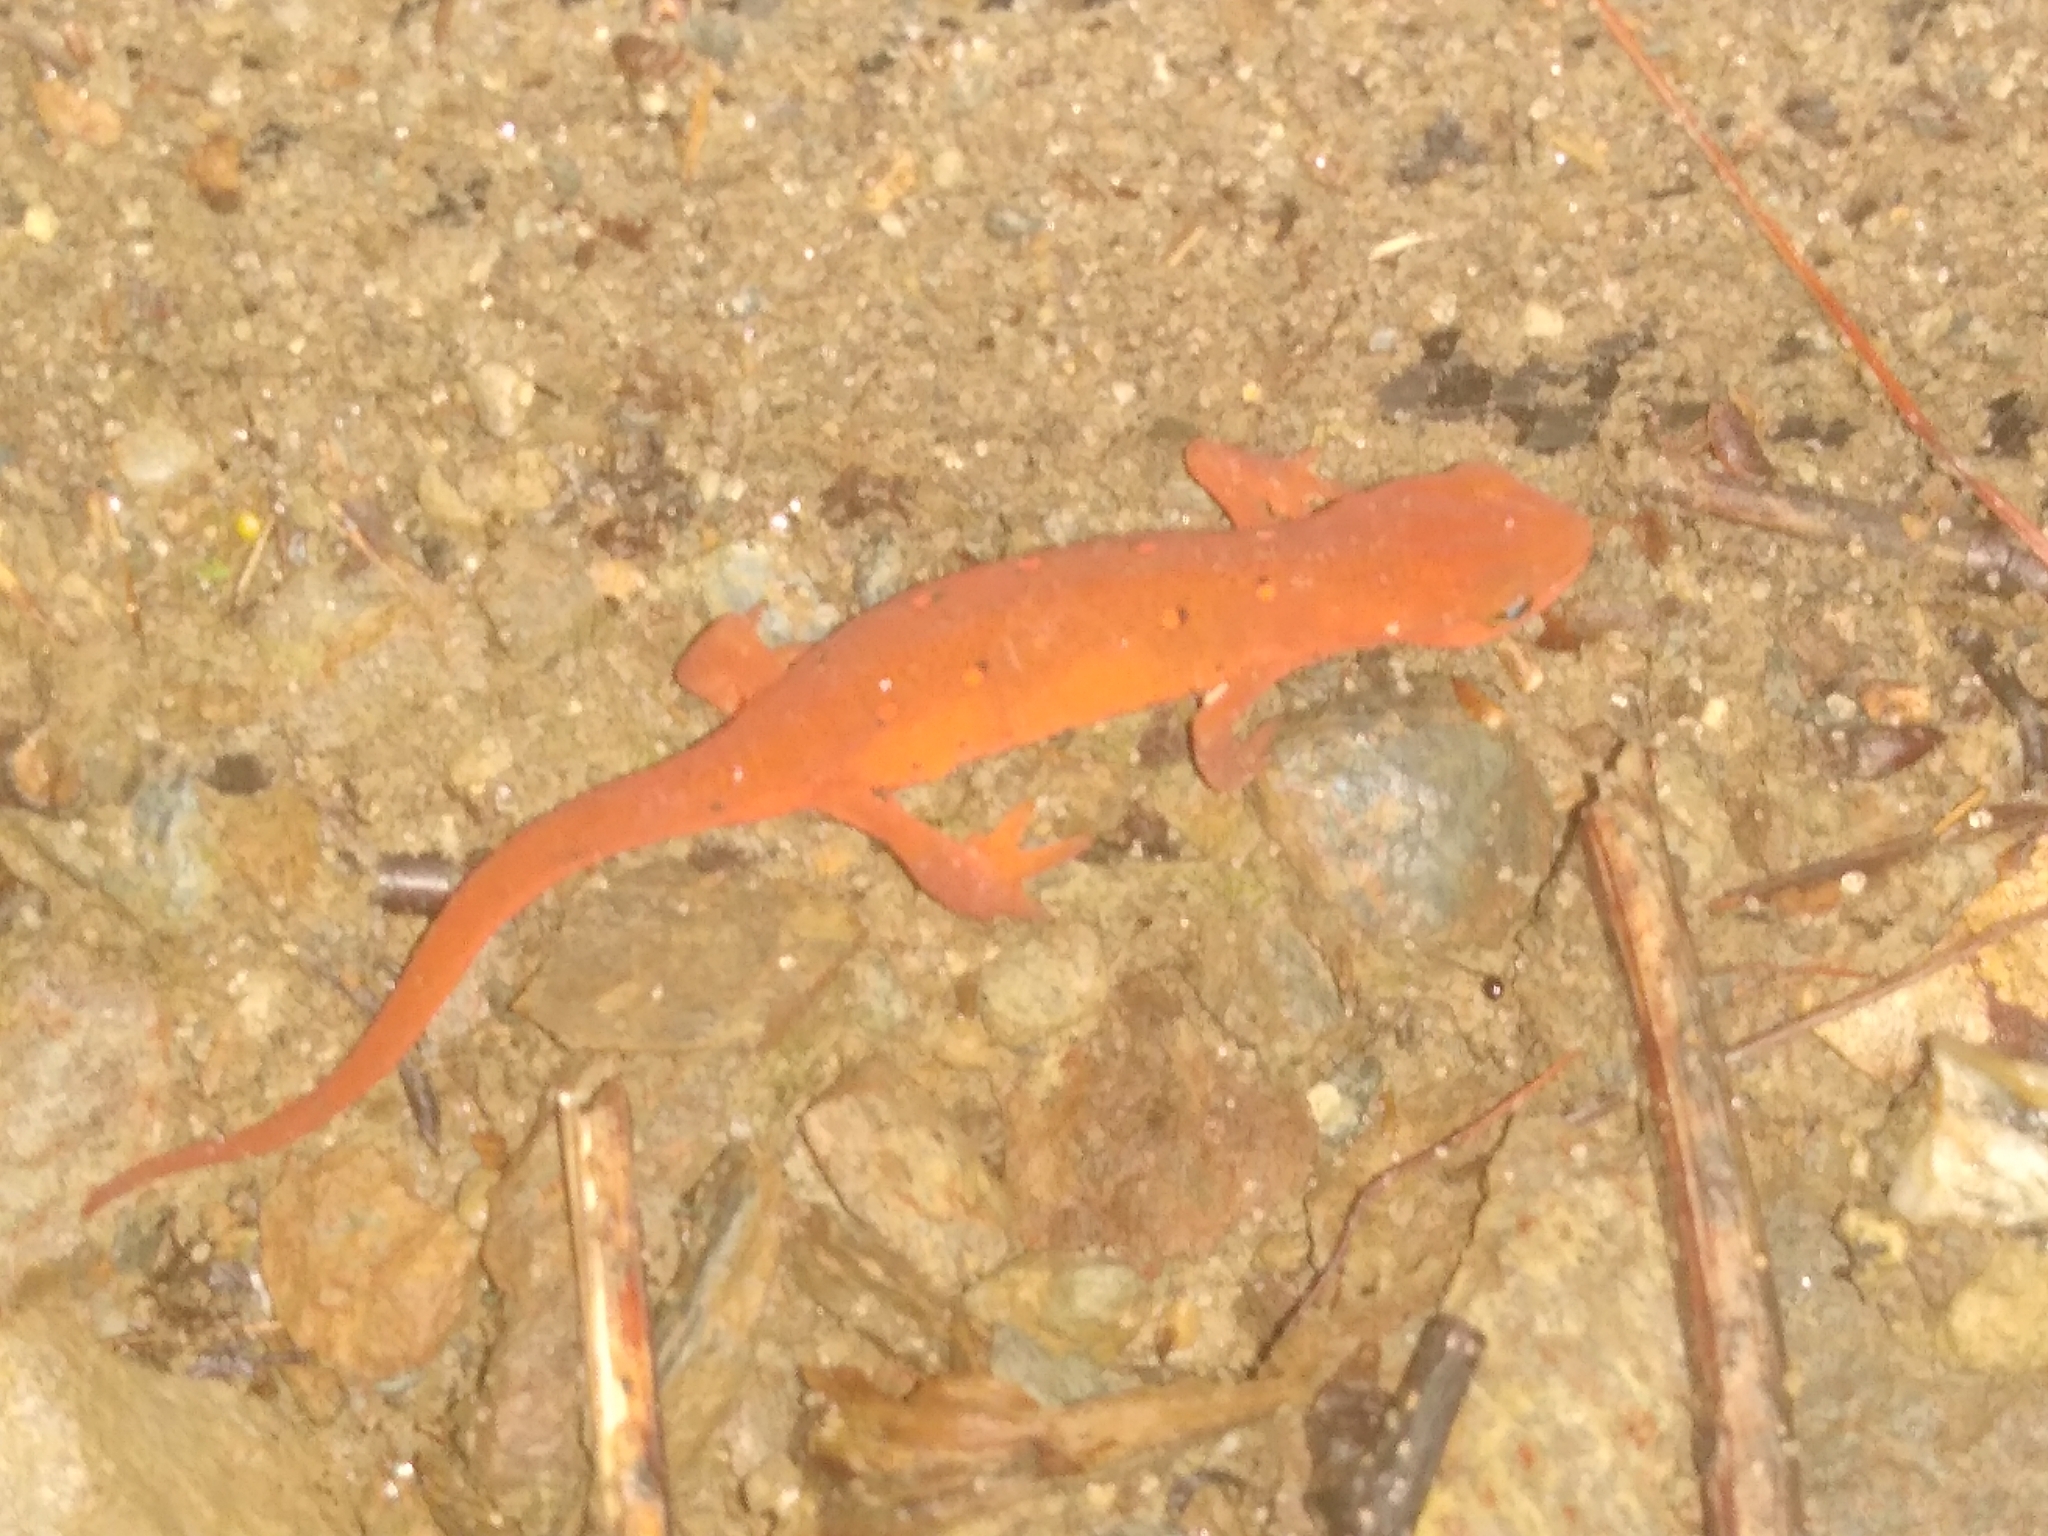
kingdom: Animalia
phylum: Chordata
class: Amphibia
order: Caudata
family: Salamandridae
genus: Notophthalmus
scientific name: Notophthalmus viridescens
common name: Eastern newt
